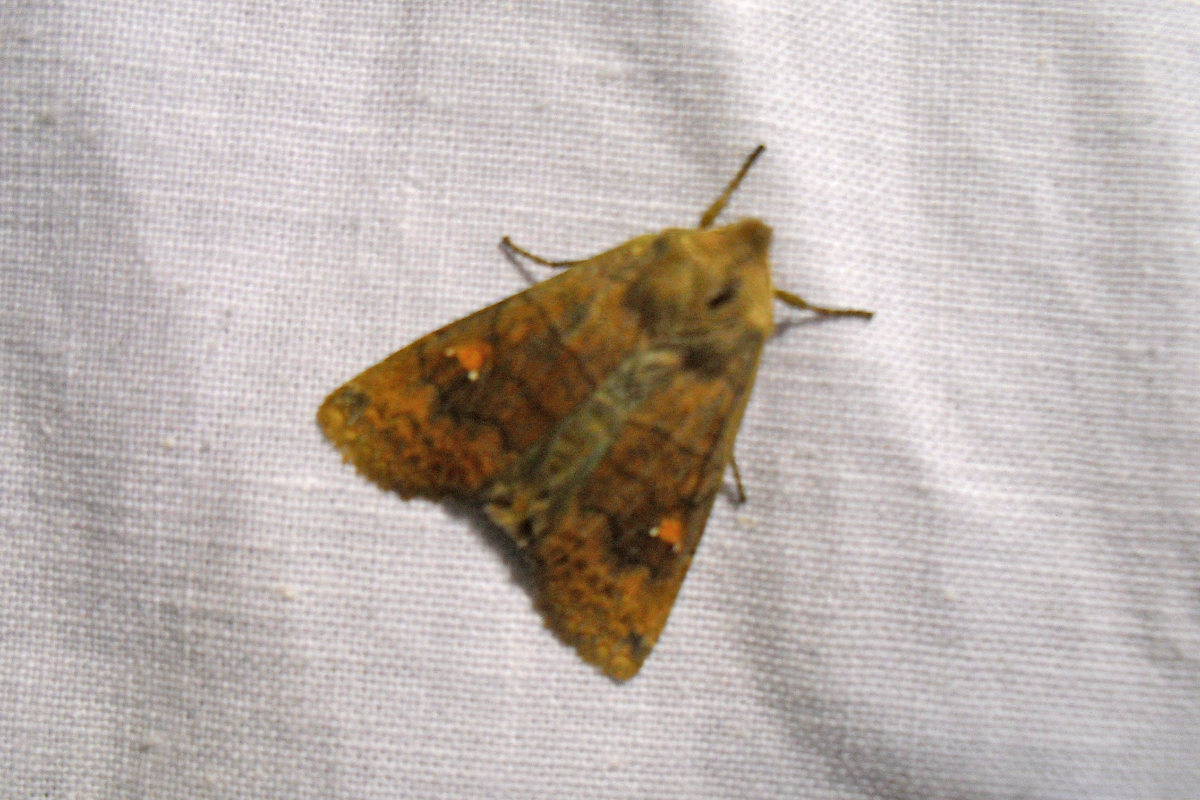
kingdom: Animalia
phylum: Arthropoda
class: Insecta
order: Lepidoptera
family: Noctuidae
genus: Eupsilia
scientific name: Eupsilia transversa
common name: Satellite
